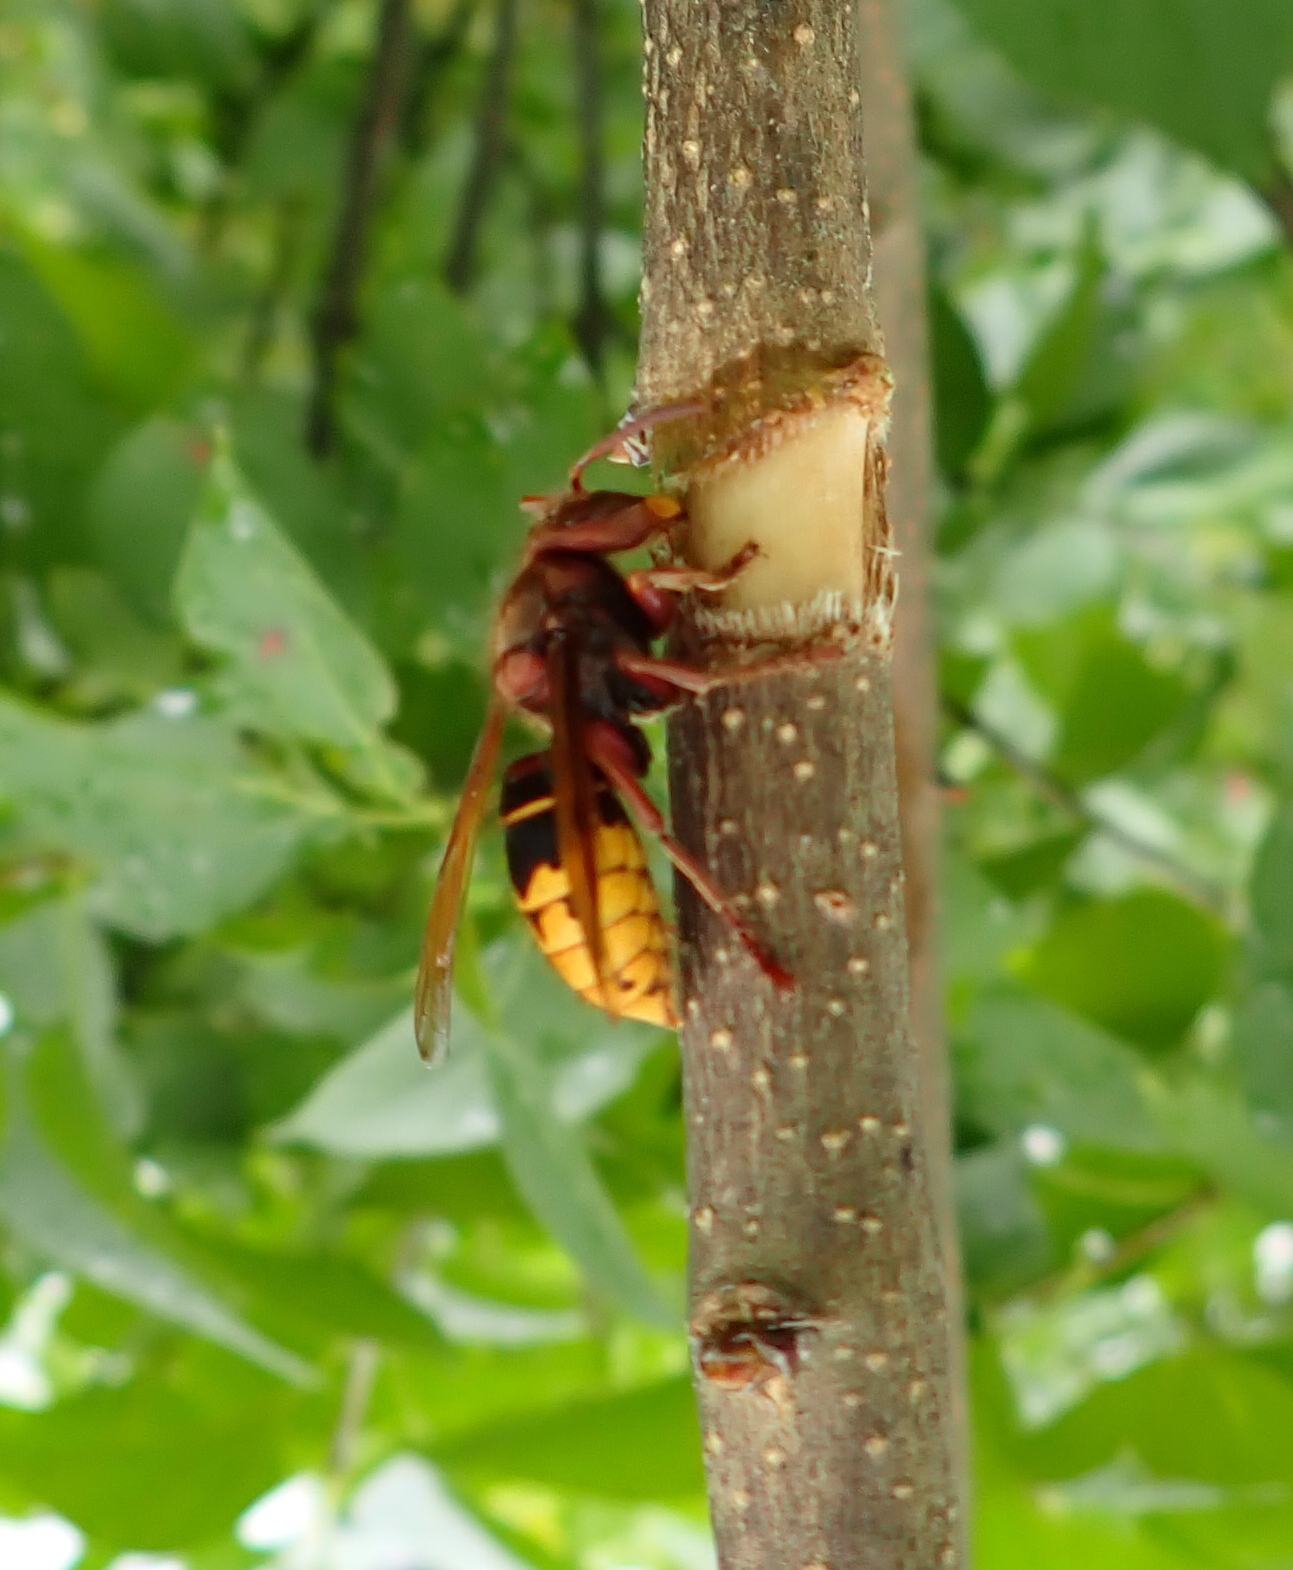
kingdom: Animalia
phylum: Arthropoda
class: Insecta
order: Hymenoptera
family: Vespidae
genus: Vespa
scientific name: Vespa crabro
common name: Hornet
